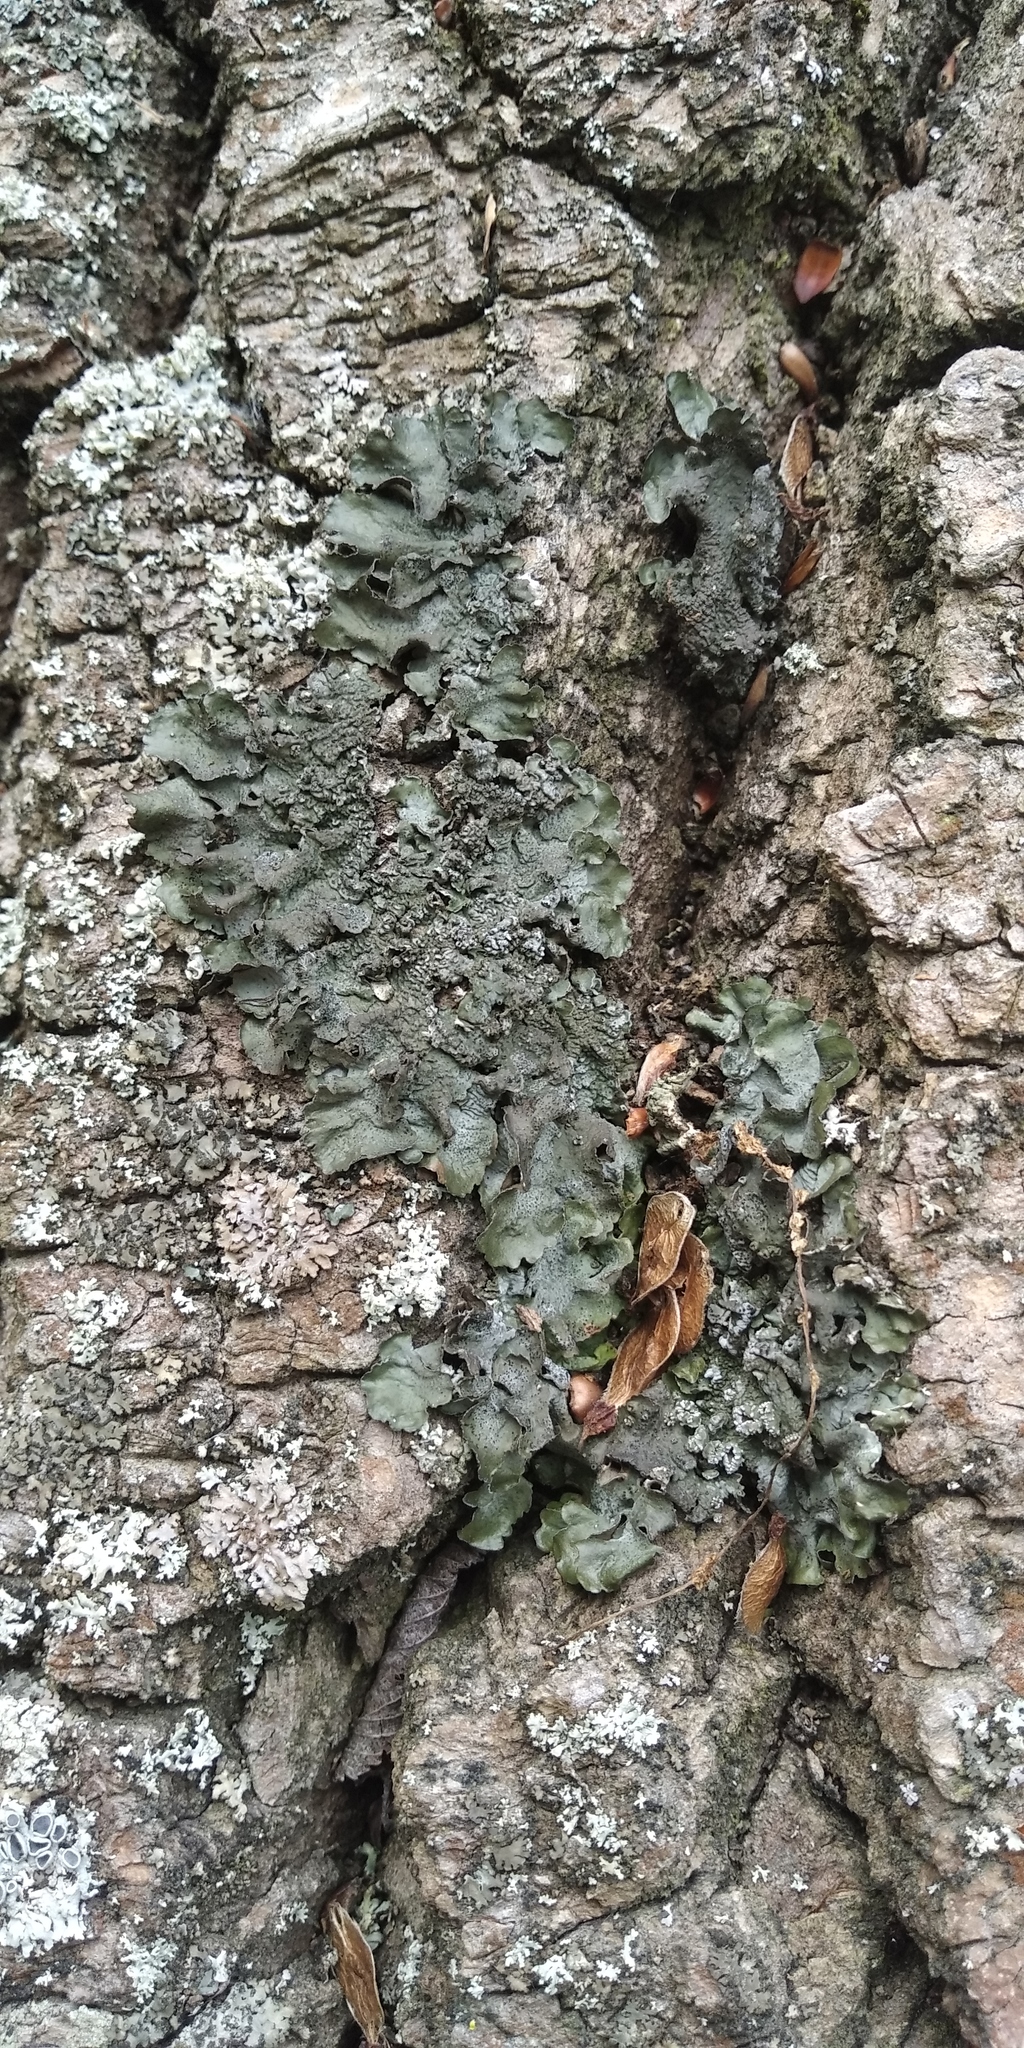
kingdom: Fungi
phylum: Ascomycota
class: Lecanoromycetes
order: Lecanorales
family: Parmeliaceae
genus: Pleurosticta
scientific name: Pleurosticta acetabulum
